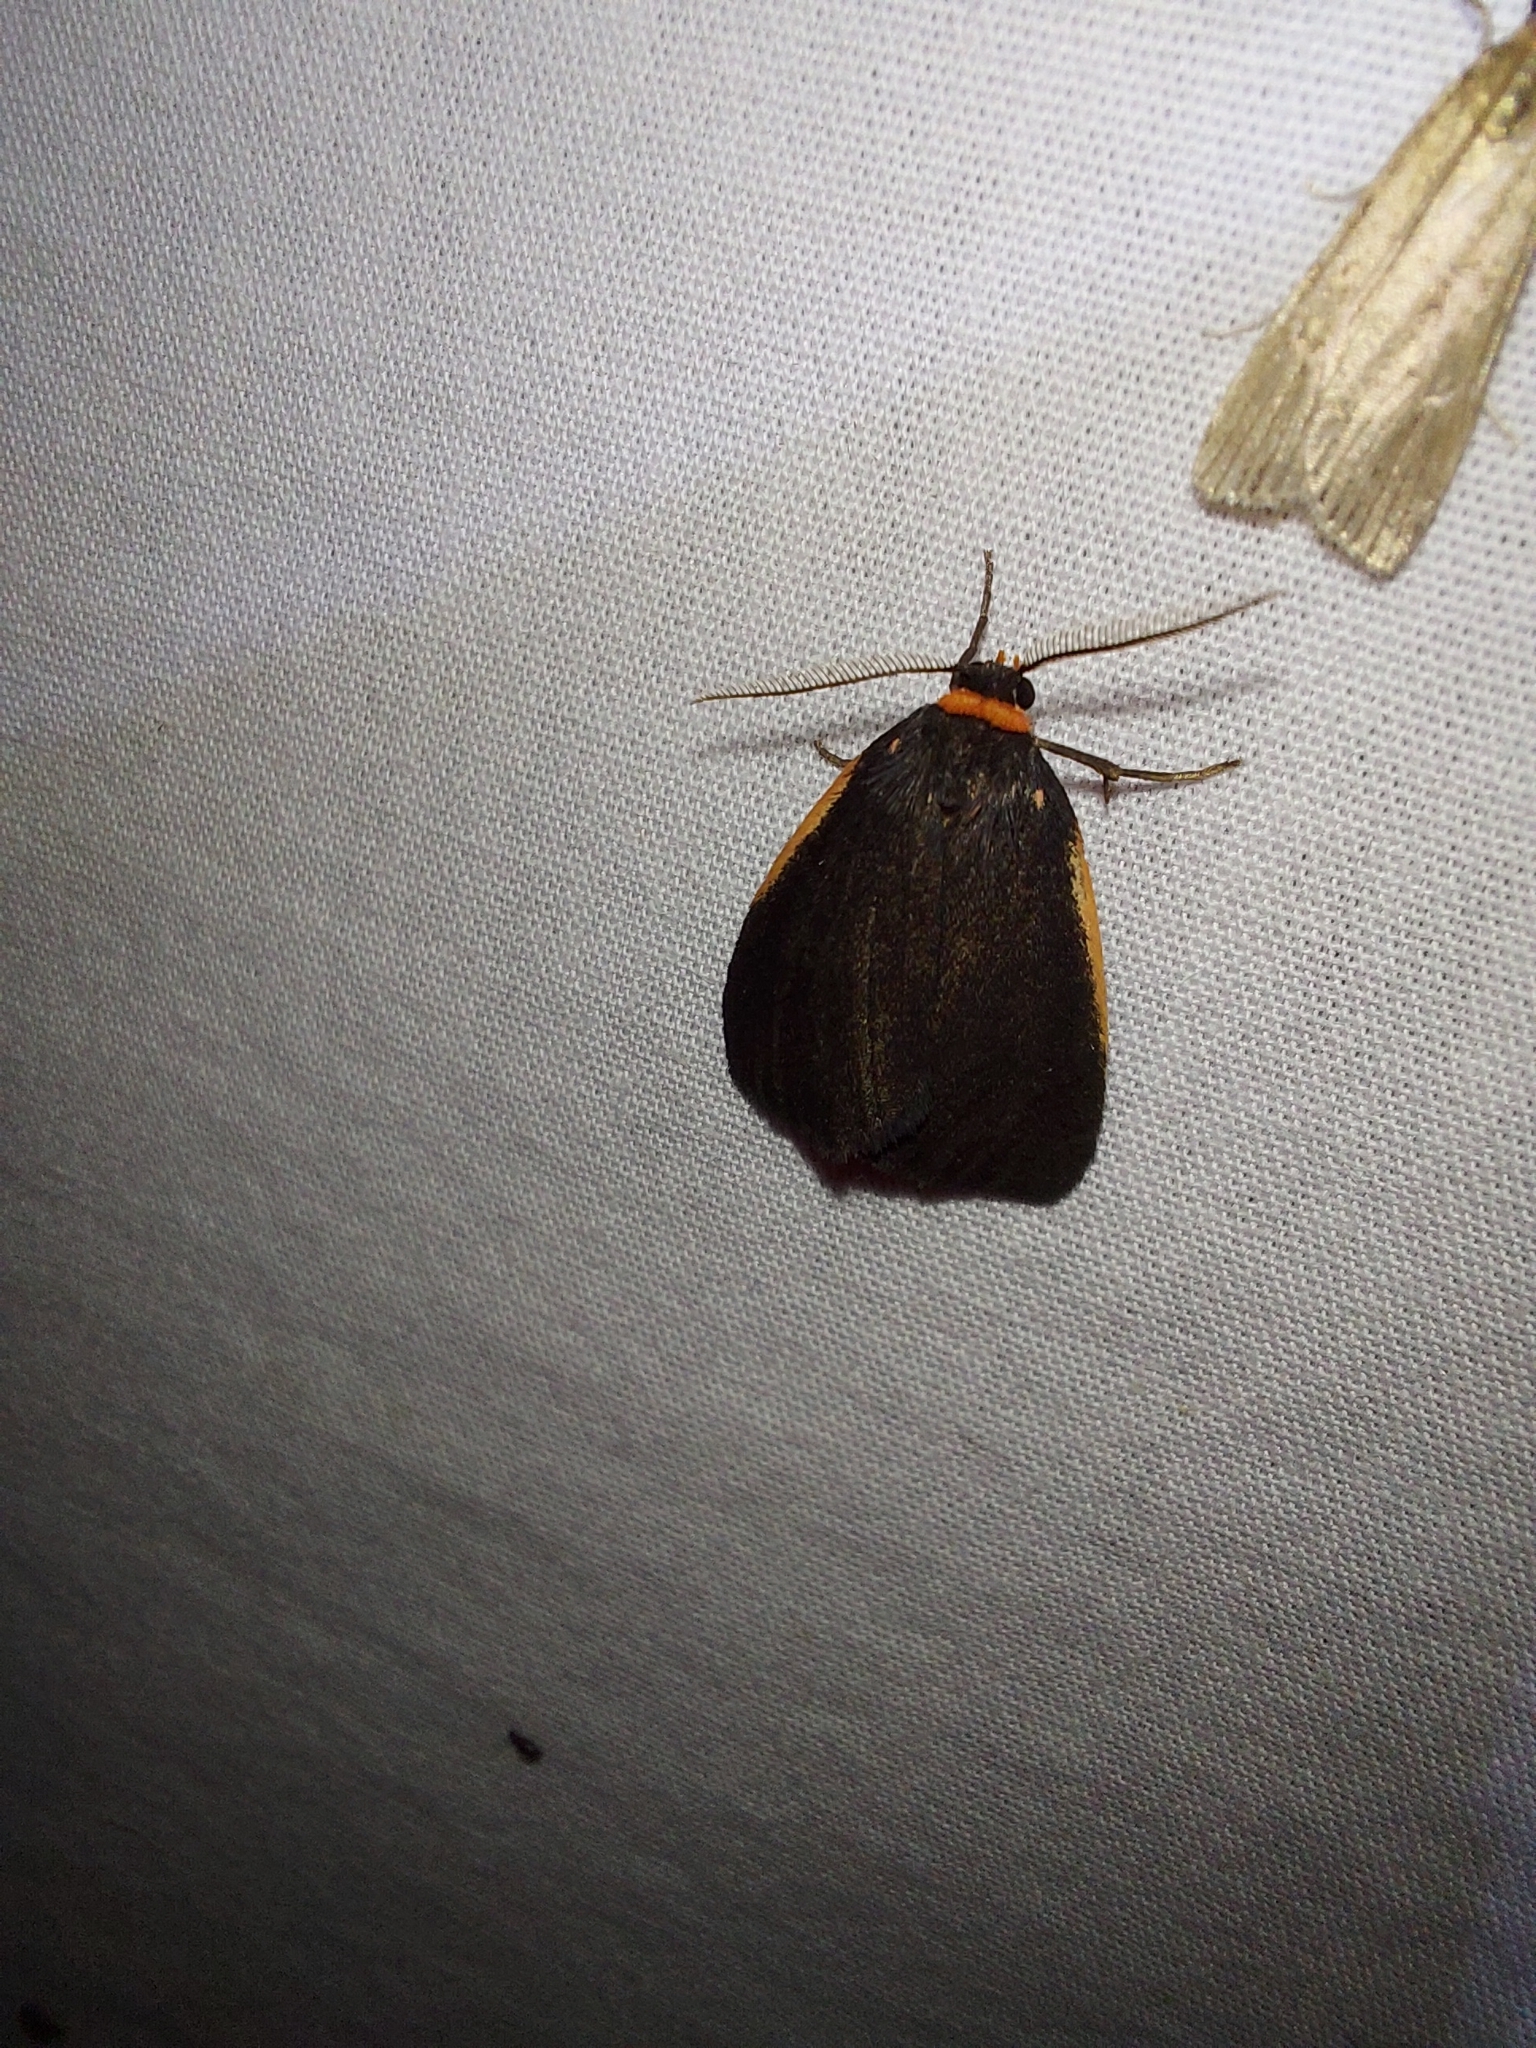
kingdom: Animalia
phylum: Arthropoda
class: Insecta
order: Lepidoptera
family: Erebidae
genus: Castulo
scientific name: Castulo doubledayi
